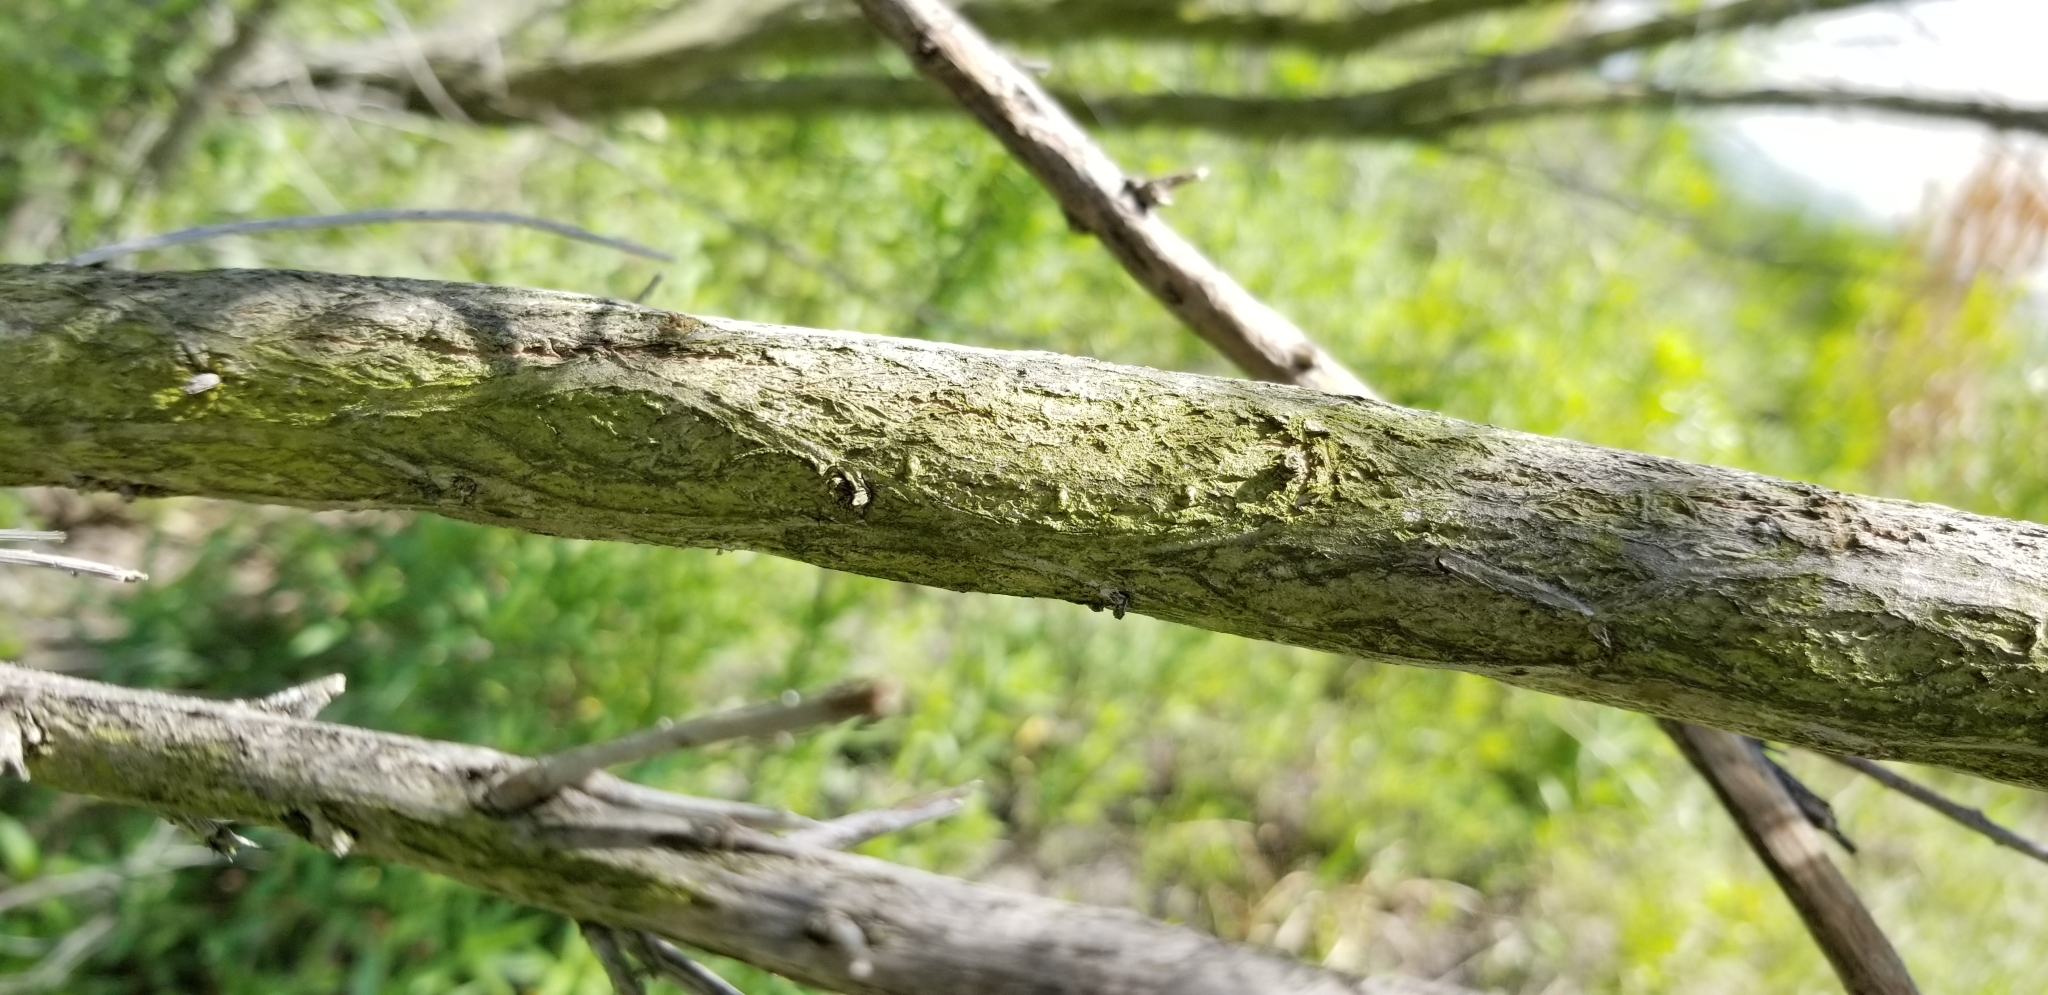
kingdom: Plantae
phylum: Tracheophyta
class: Magnoliopsida
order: Asterales
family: Asteraceae
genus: Baccharis
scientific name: Baccharis neglecta
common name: Roosevelt-weed
